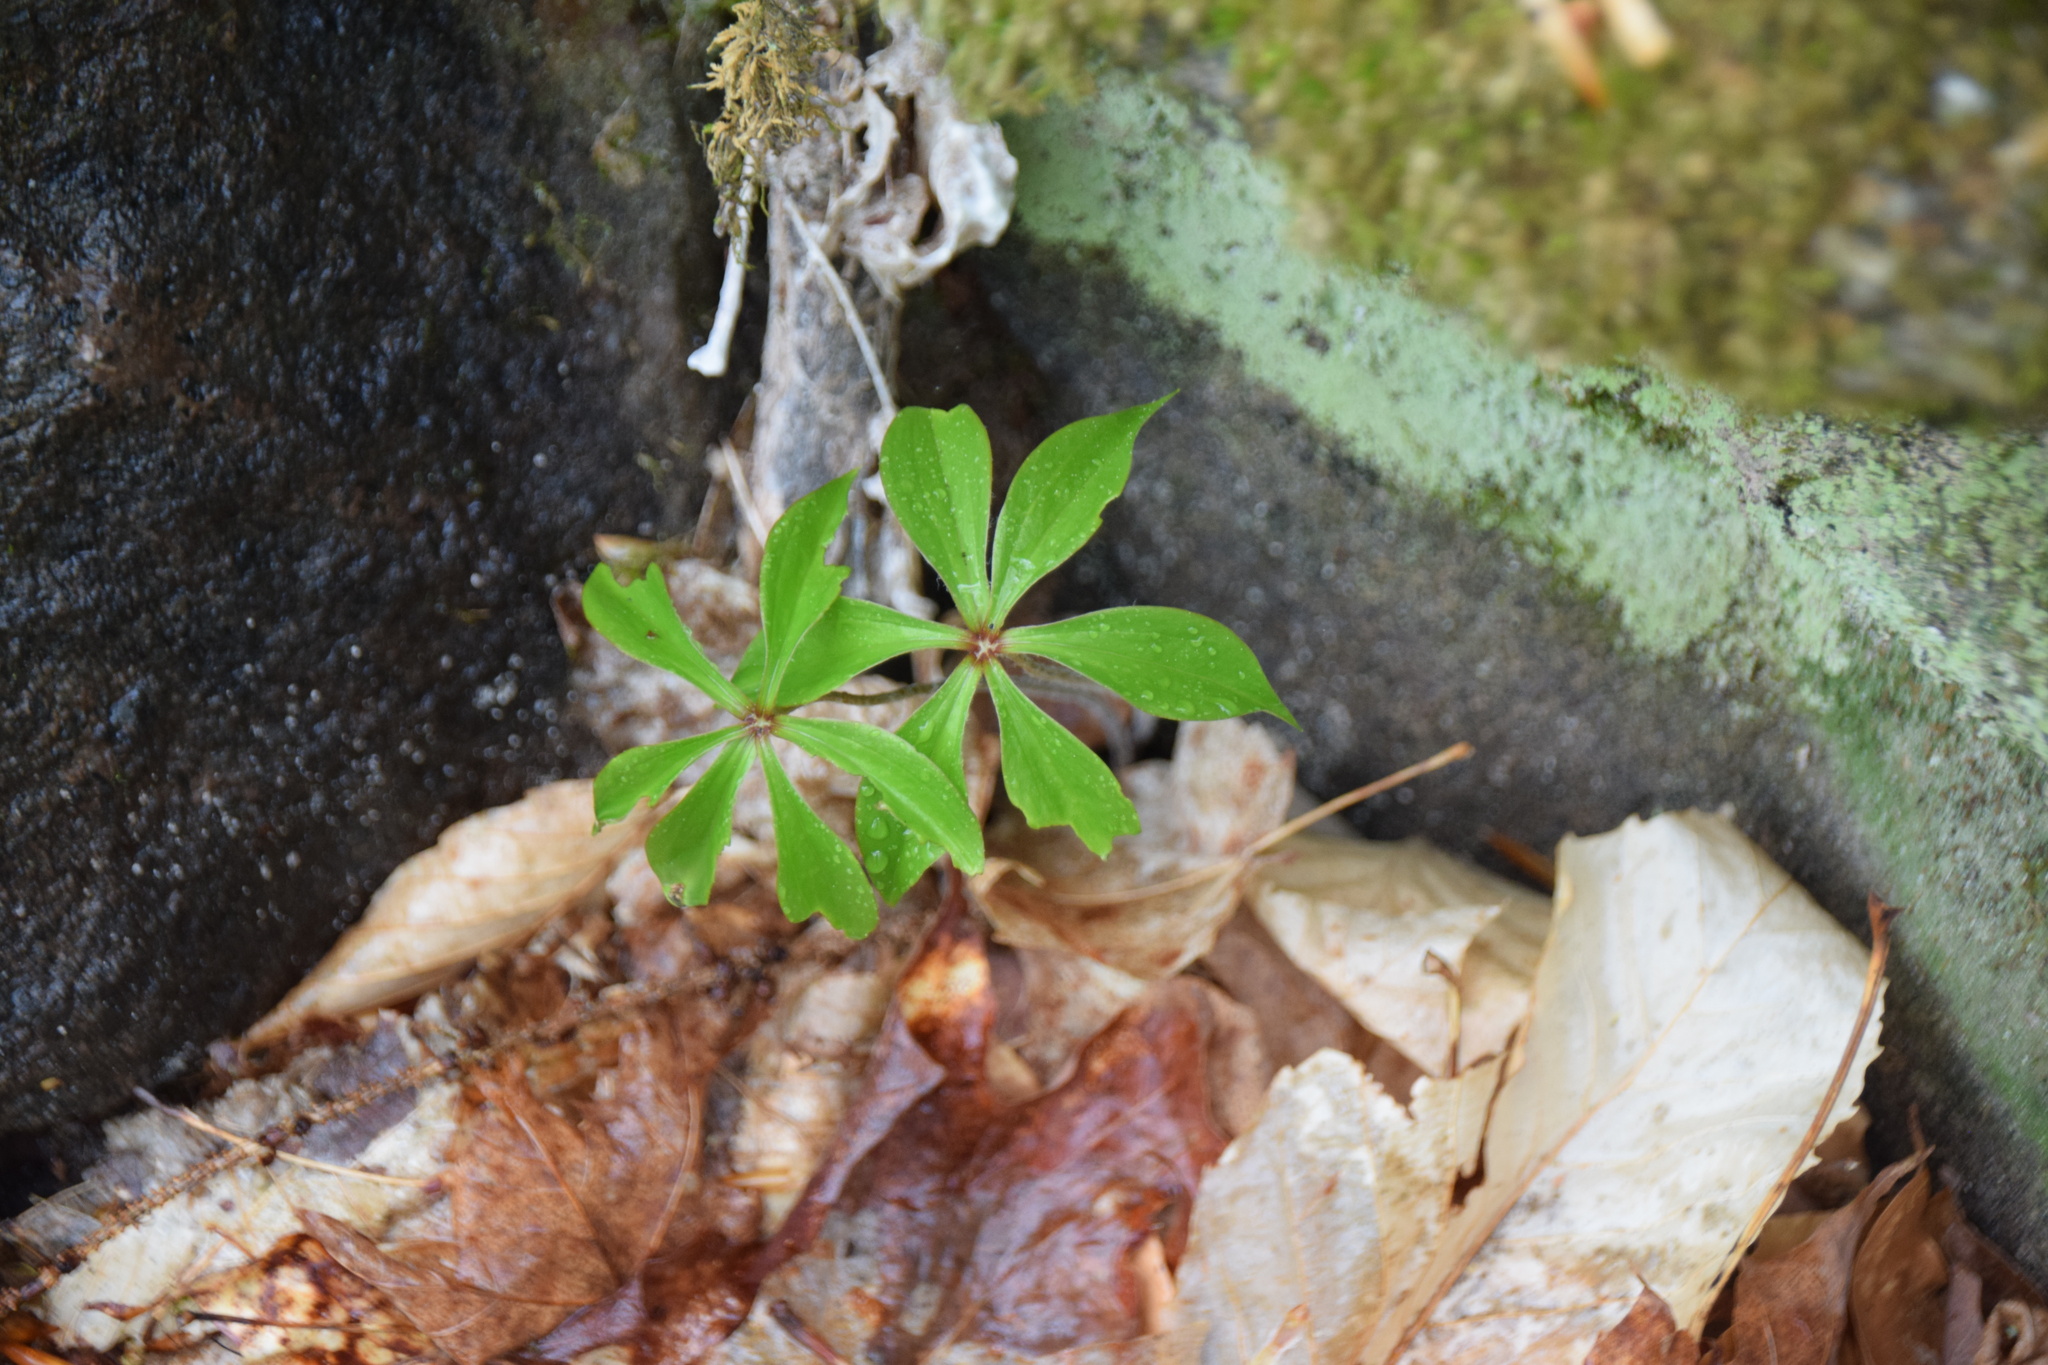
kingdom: Plantae
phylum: Tracheophyta
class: Liliopsida
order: Liliales
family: Liliaceae
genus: Medeola
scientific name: Medeola virginiana
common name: Indian cucumber-root
